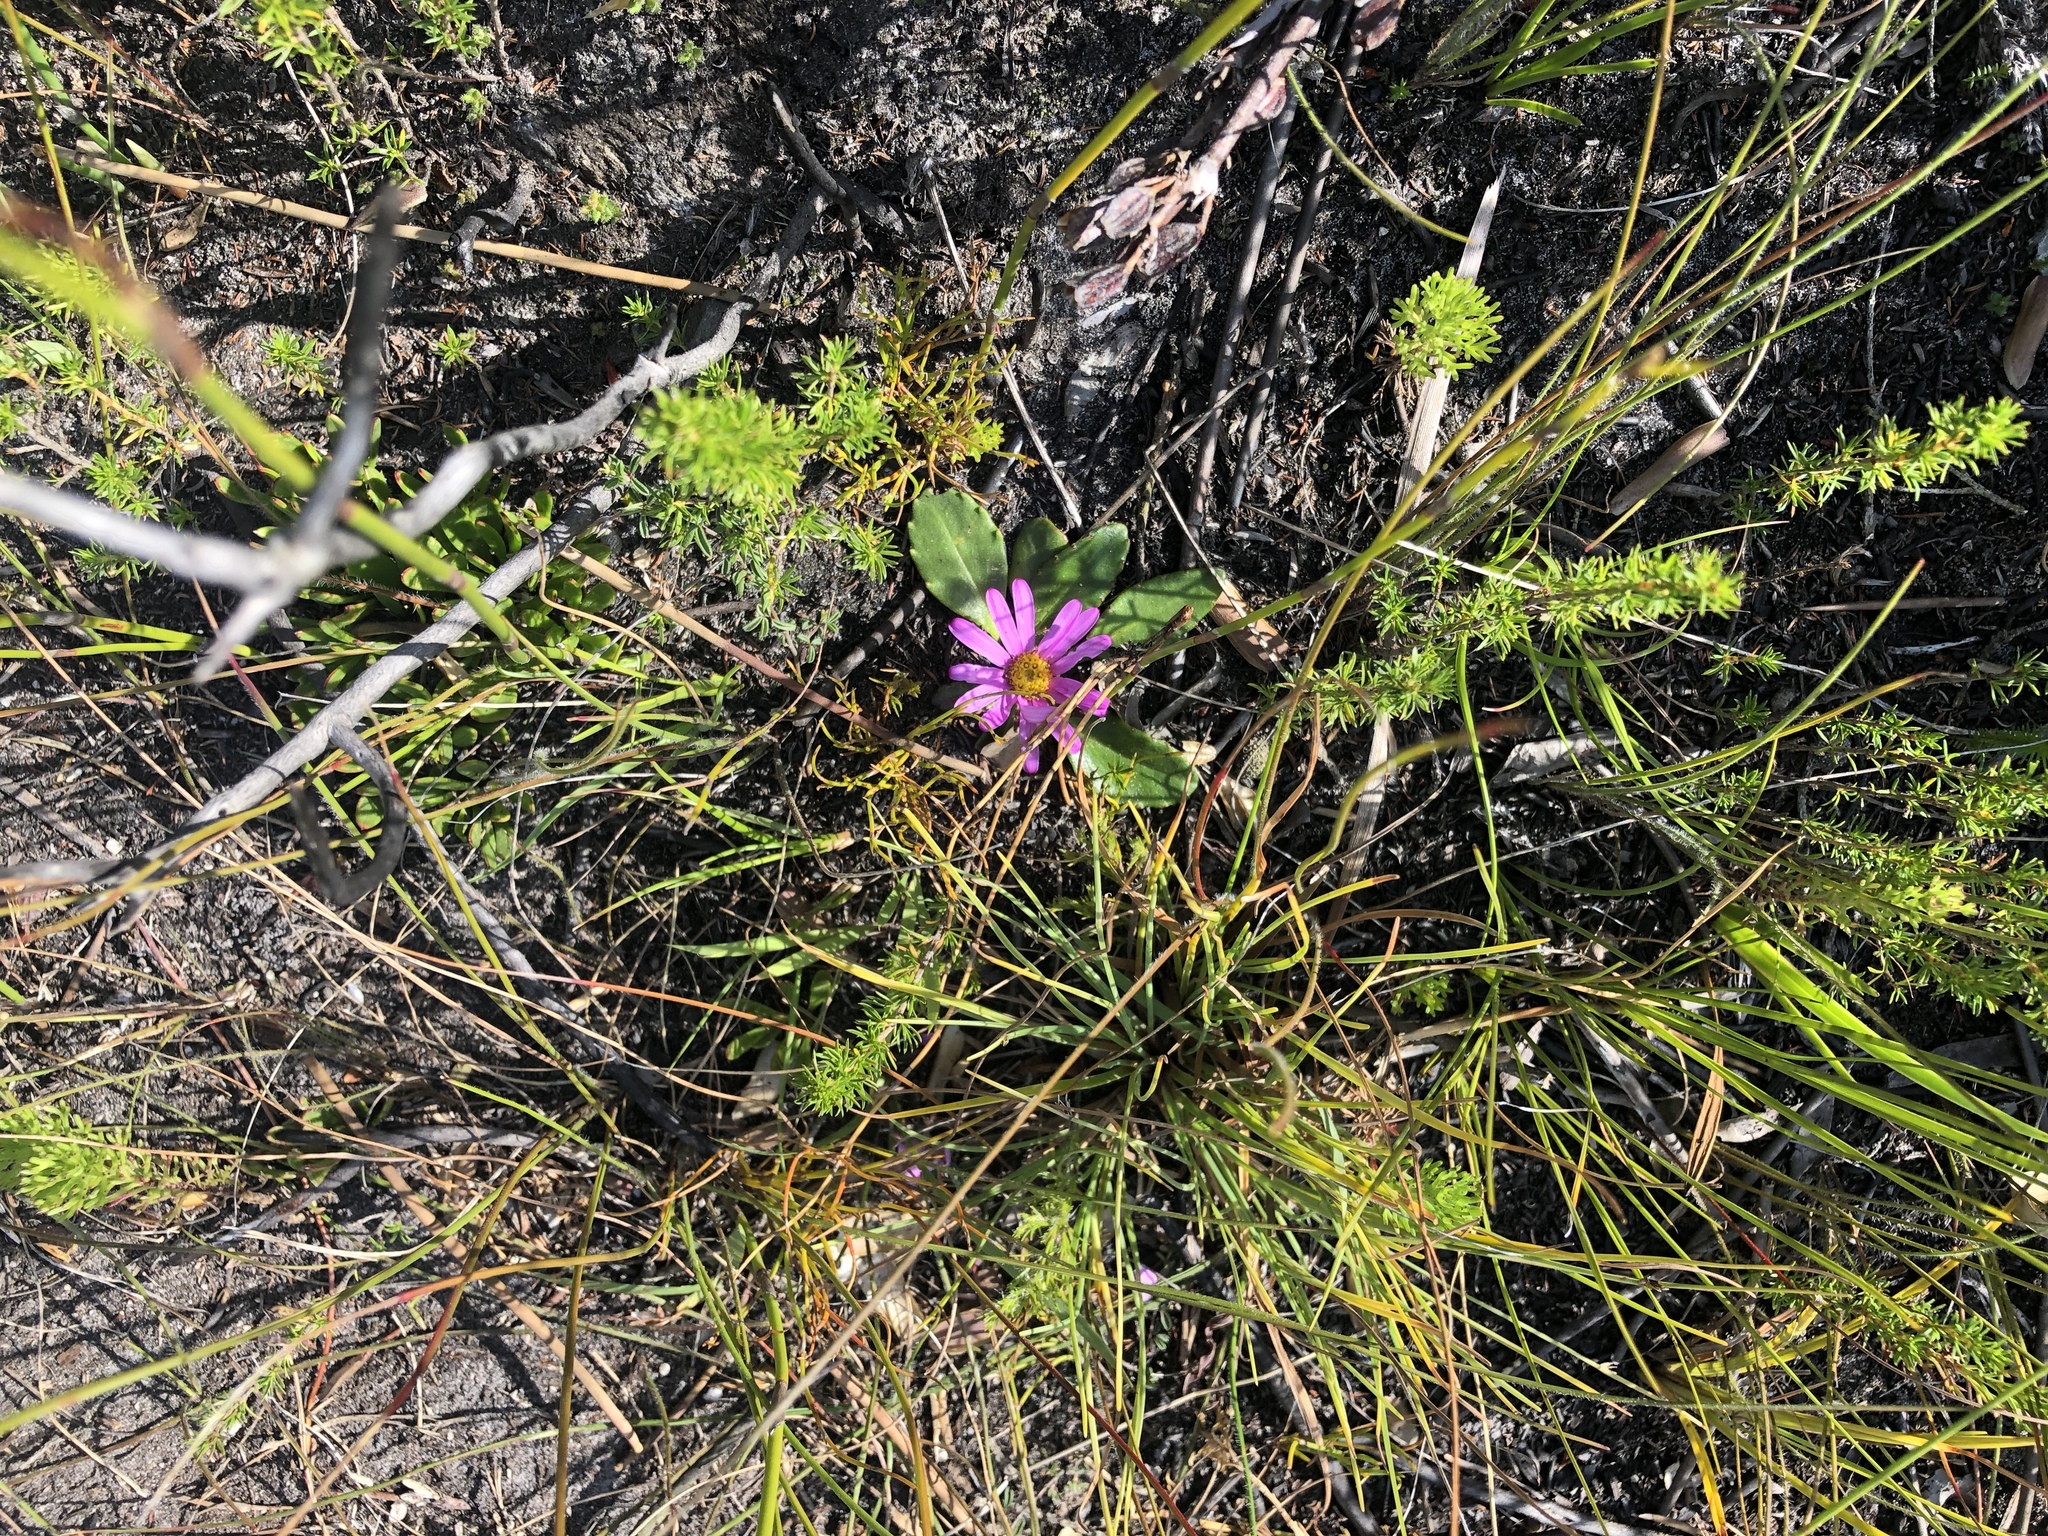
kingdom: Plantae
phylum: Tracheophyta
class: Magnoliopsida
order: Asterales
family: Asteraceae
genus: Zyrphelis
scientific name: Zyrphelis crenata
